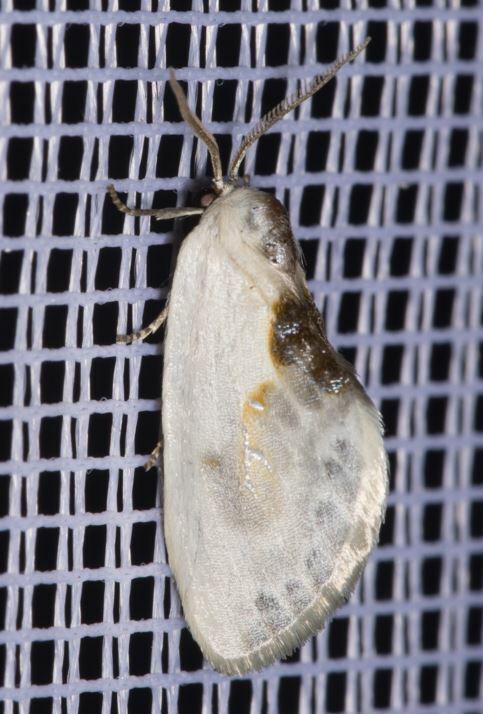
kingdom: Animalia
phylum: Arthropoda
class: Insecta
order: Lepidoptera
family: Drepanidae
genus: Cilix
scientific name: Cilix glaucata
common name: Chinese character
